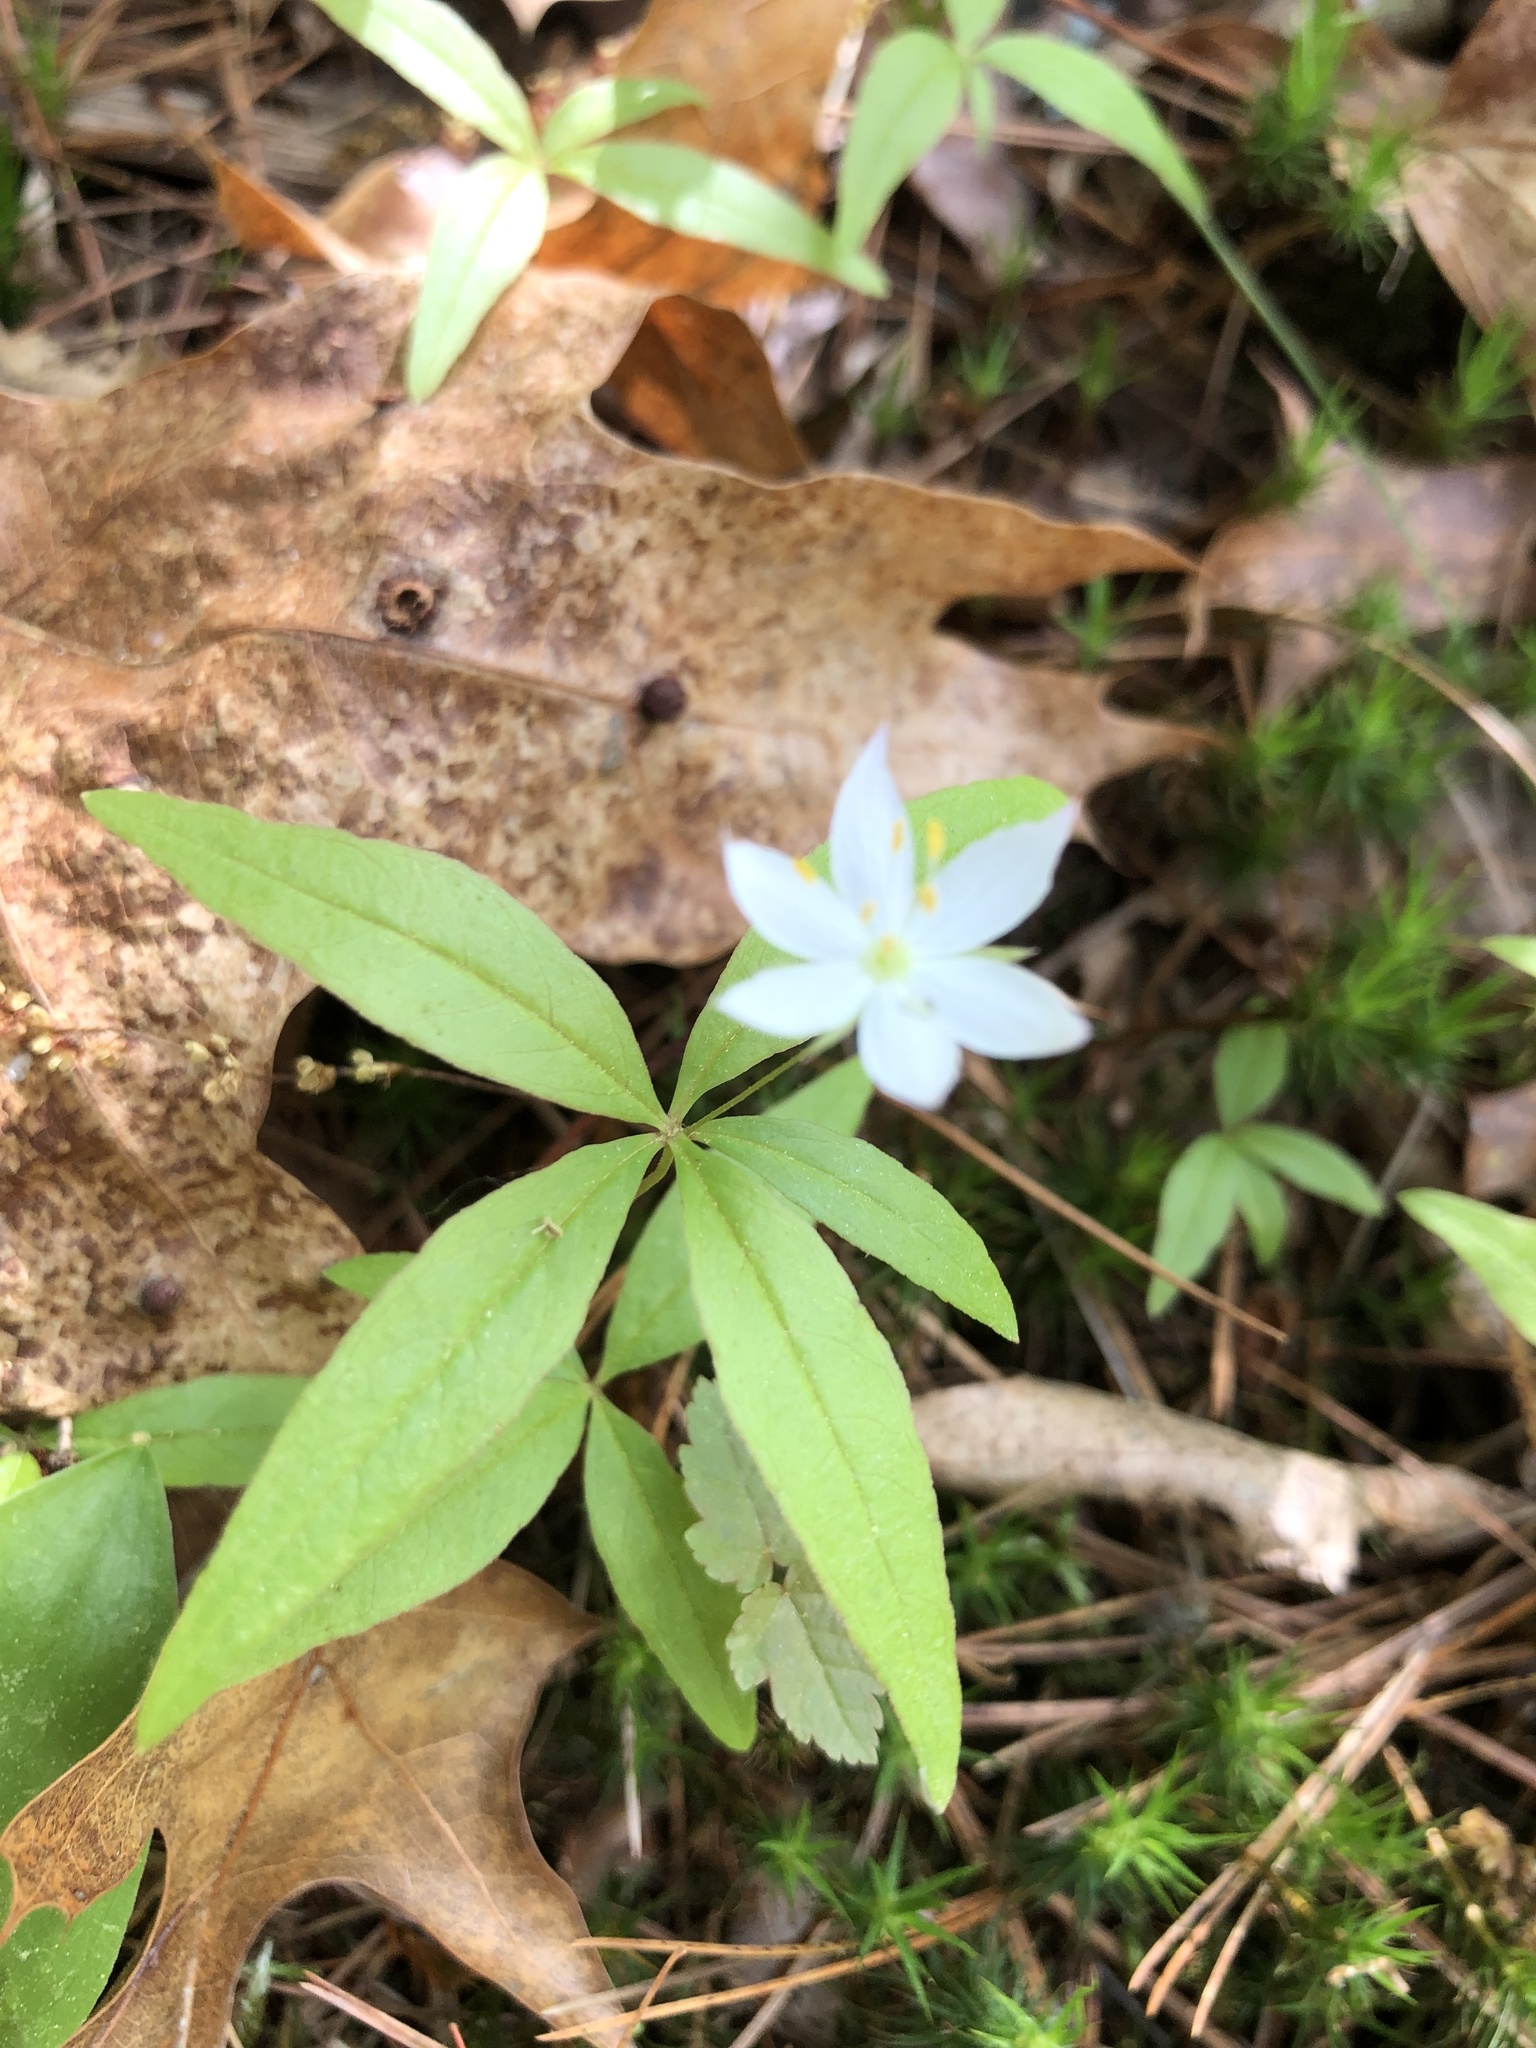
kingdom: Plantae
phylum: Tracheophyta
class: Magnoliopsida
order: Ericales
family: Primulaceae
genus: Lysimachia
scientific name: Lysimachia borealis
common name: American starflower
